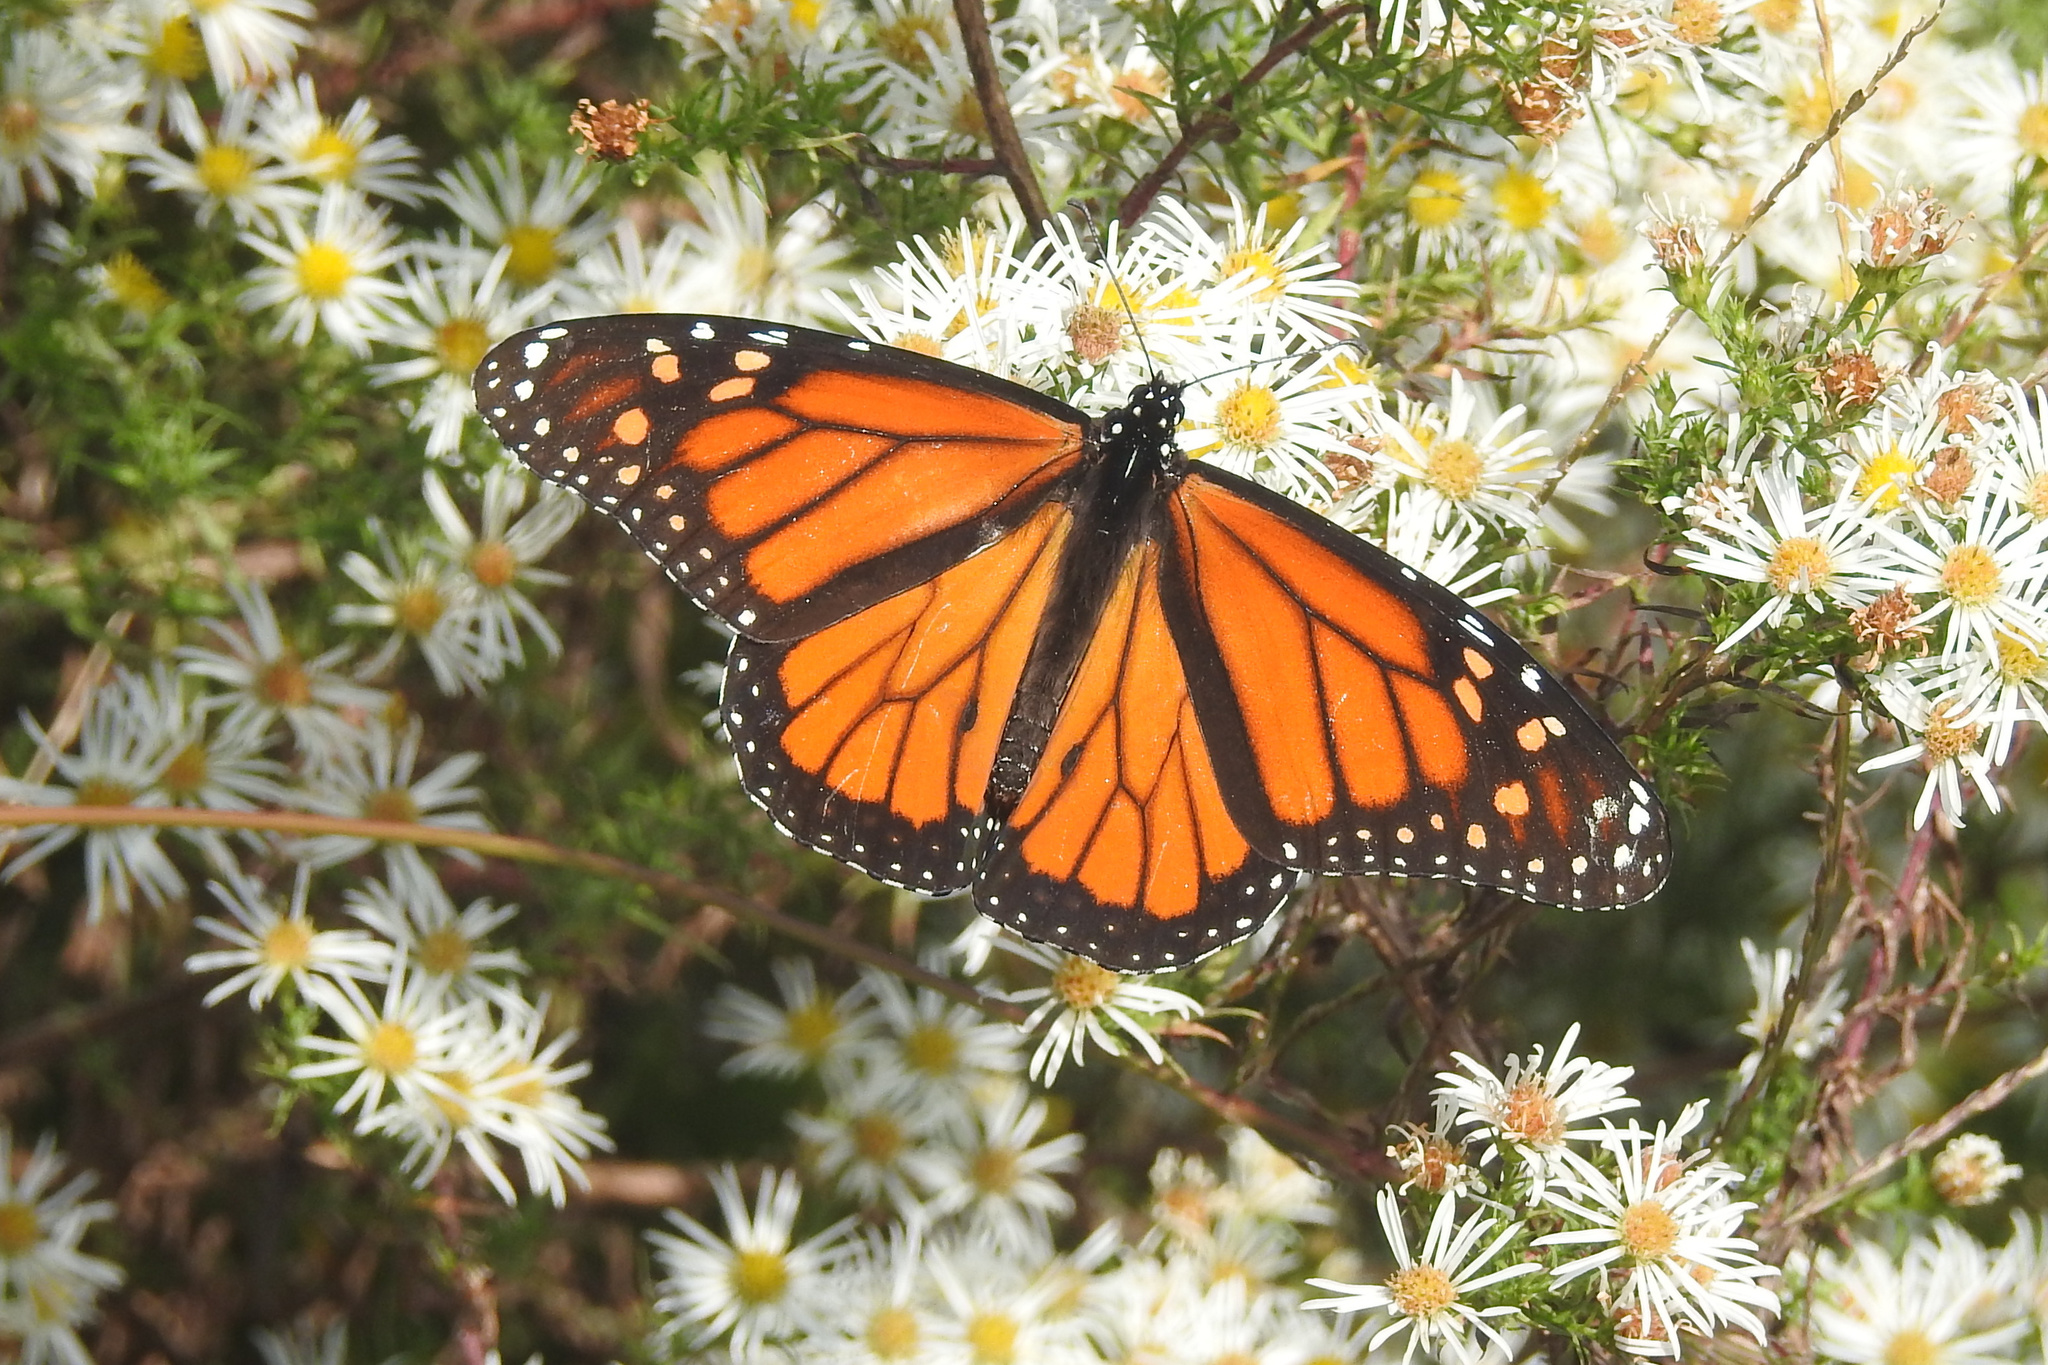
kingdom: Animalia
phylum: Arthropoda
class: Insecta
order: Lepidoptera
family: Nymphalidae
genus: Danaus
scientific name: Danaus plexippus
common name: Monarch
